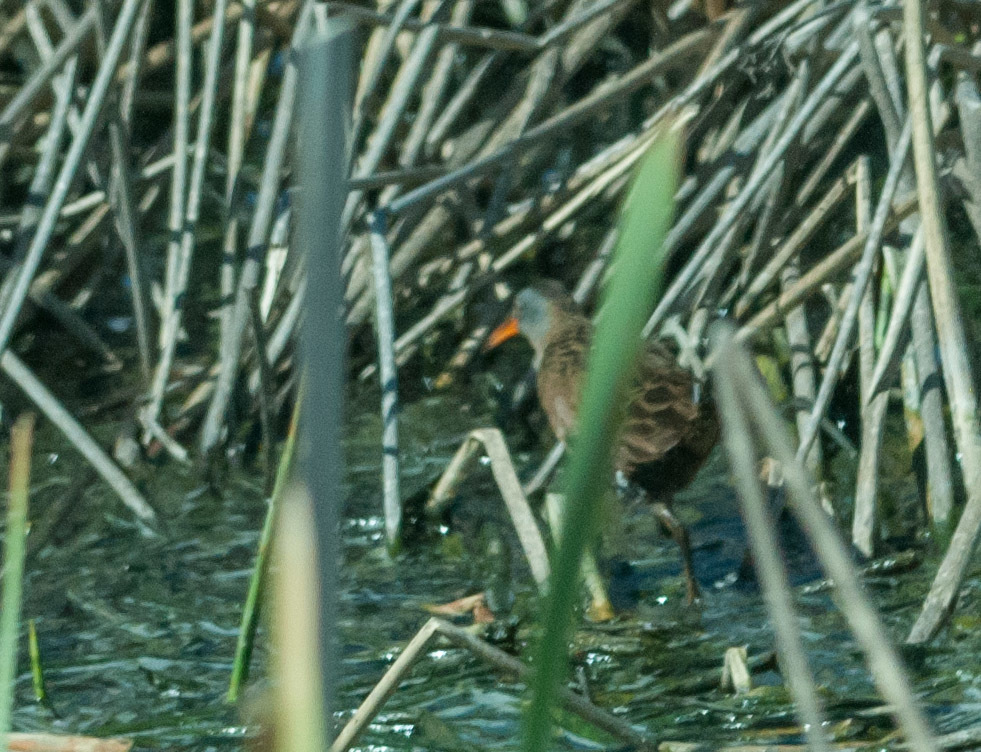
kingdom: Animalia
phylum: Chordata
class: Aves
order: Gruiformes
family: Rallidae
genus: Rallus
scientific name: Rallus limicola
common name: Virginia rail
